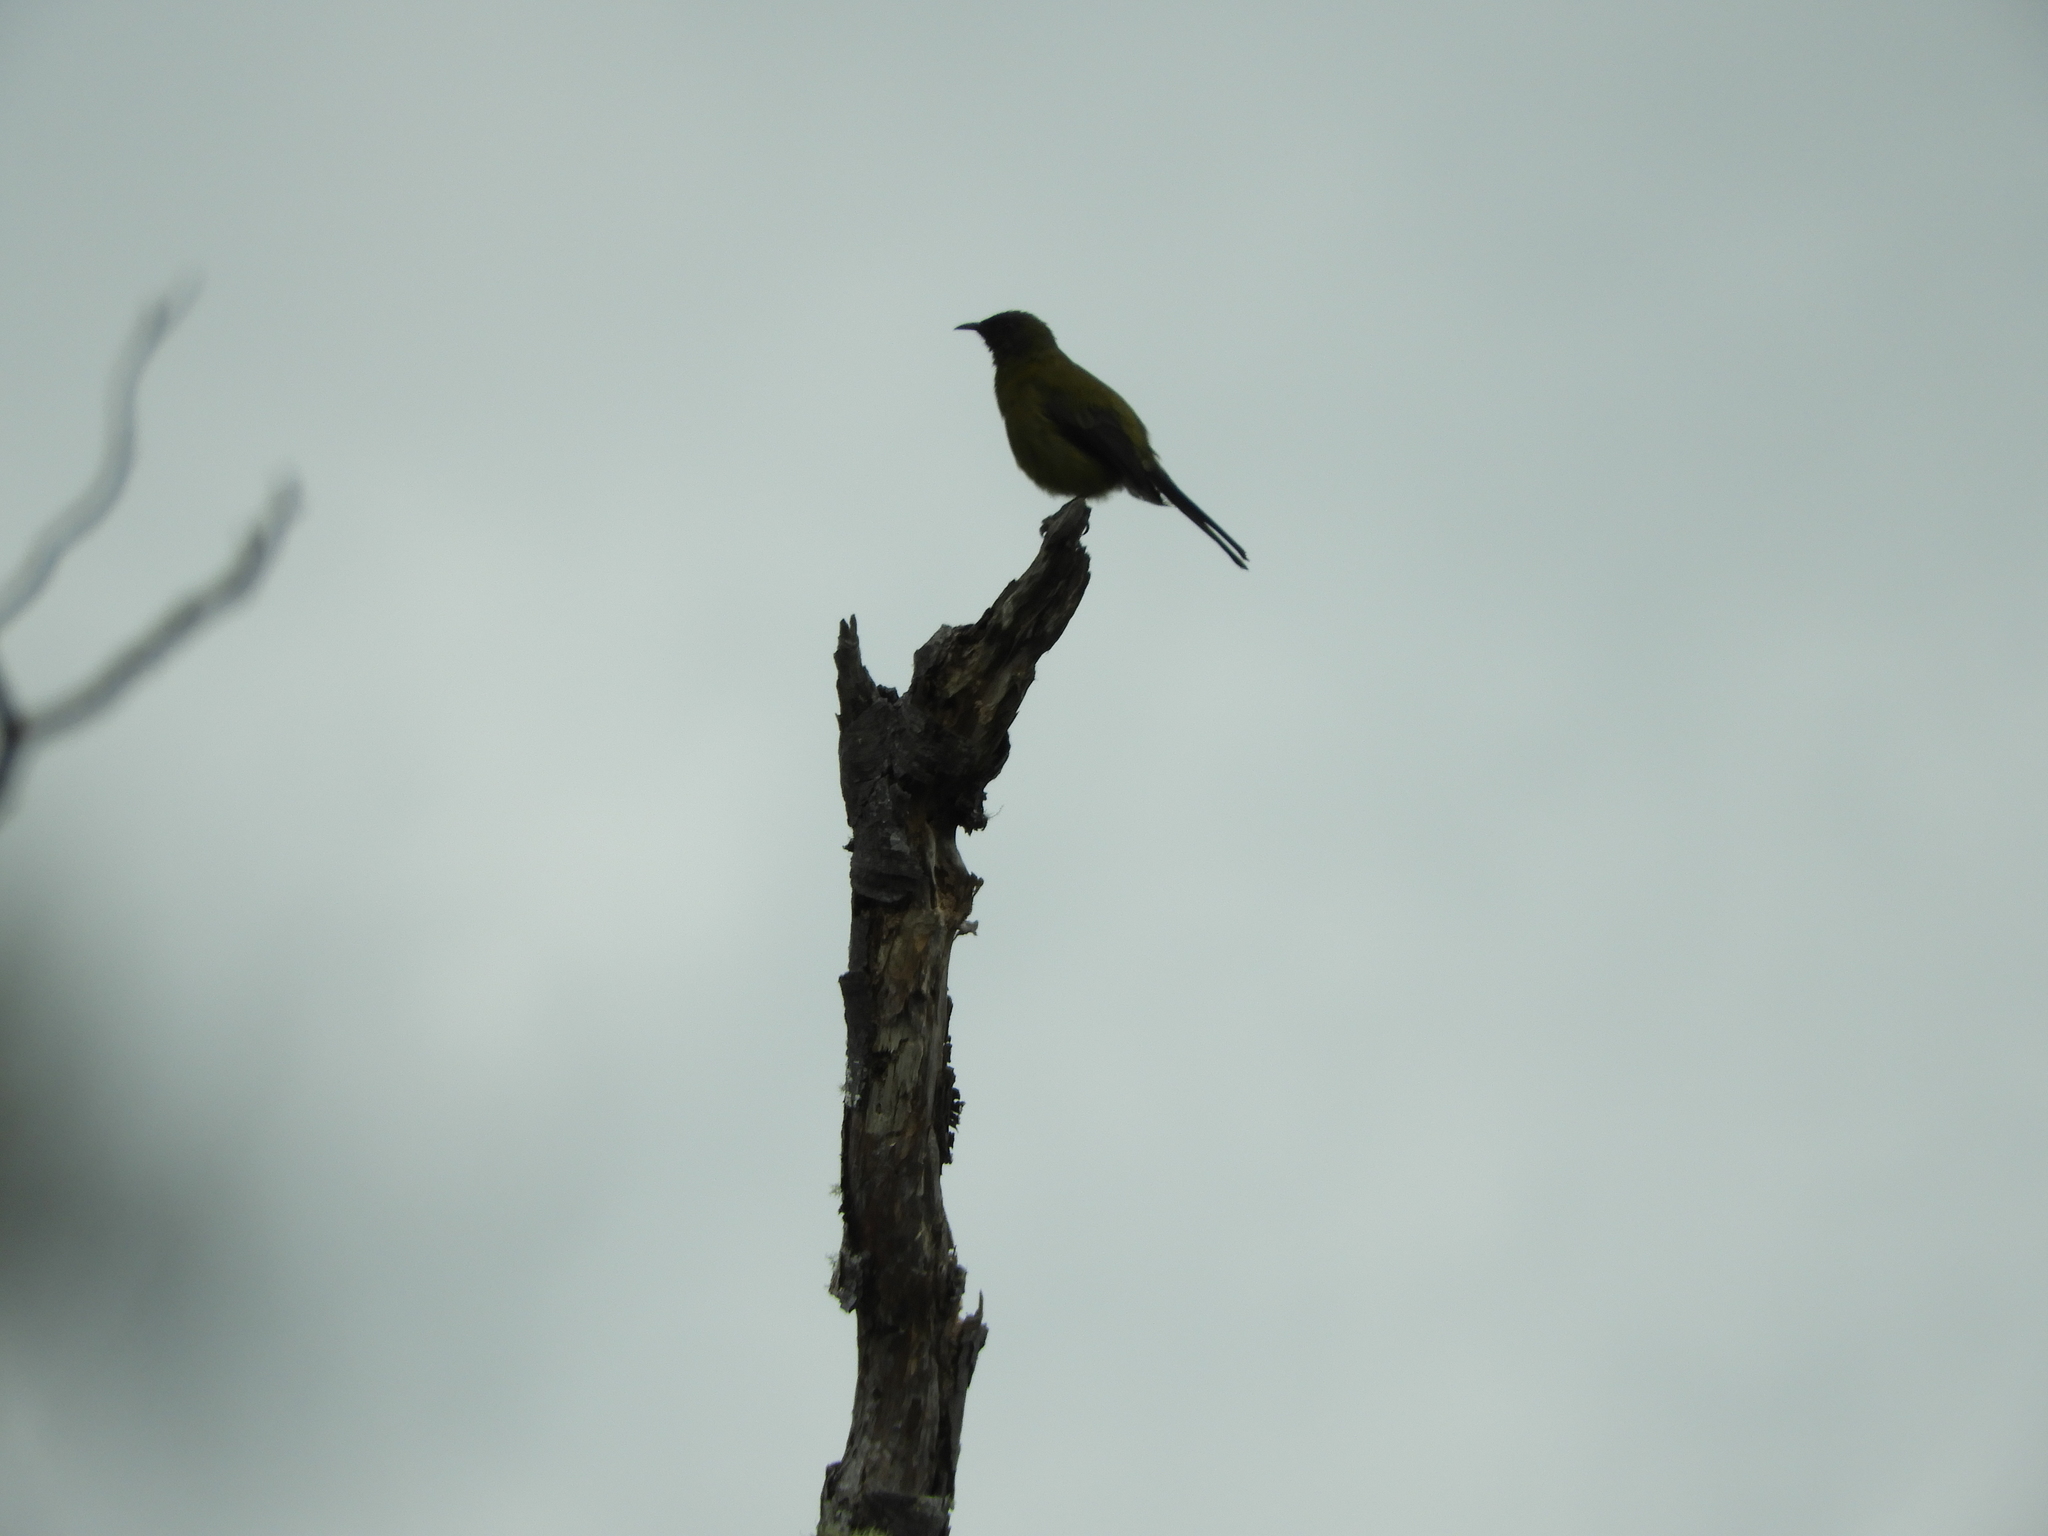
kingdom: Animalia
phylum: Chordata
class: Aves
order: Passeriformes
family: Meliphagidae
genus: Anthornis
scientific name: Anthornis melanura
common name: New zealand bellbird
